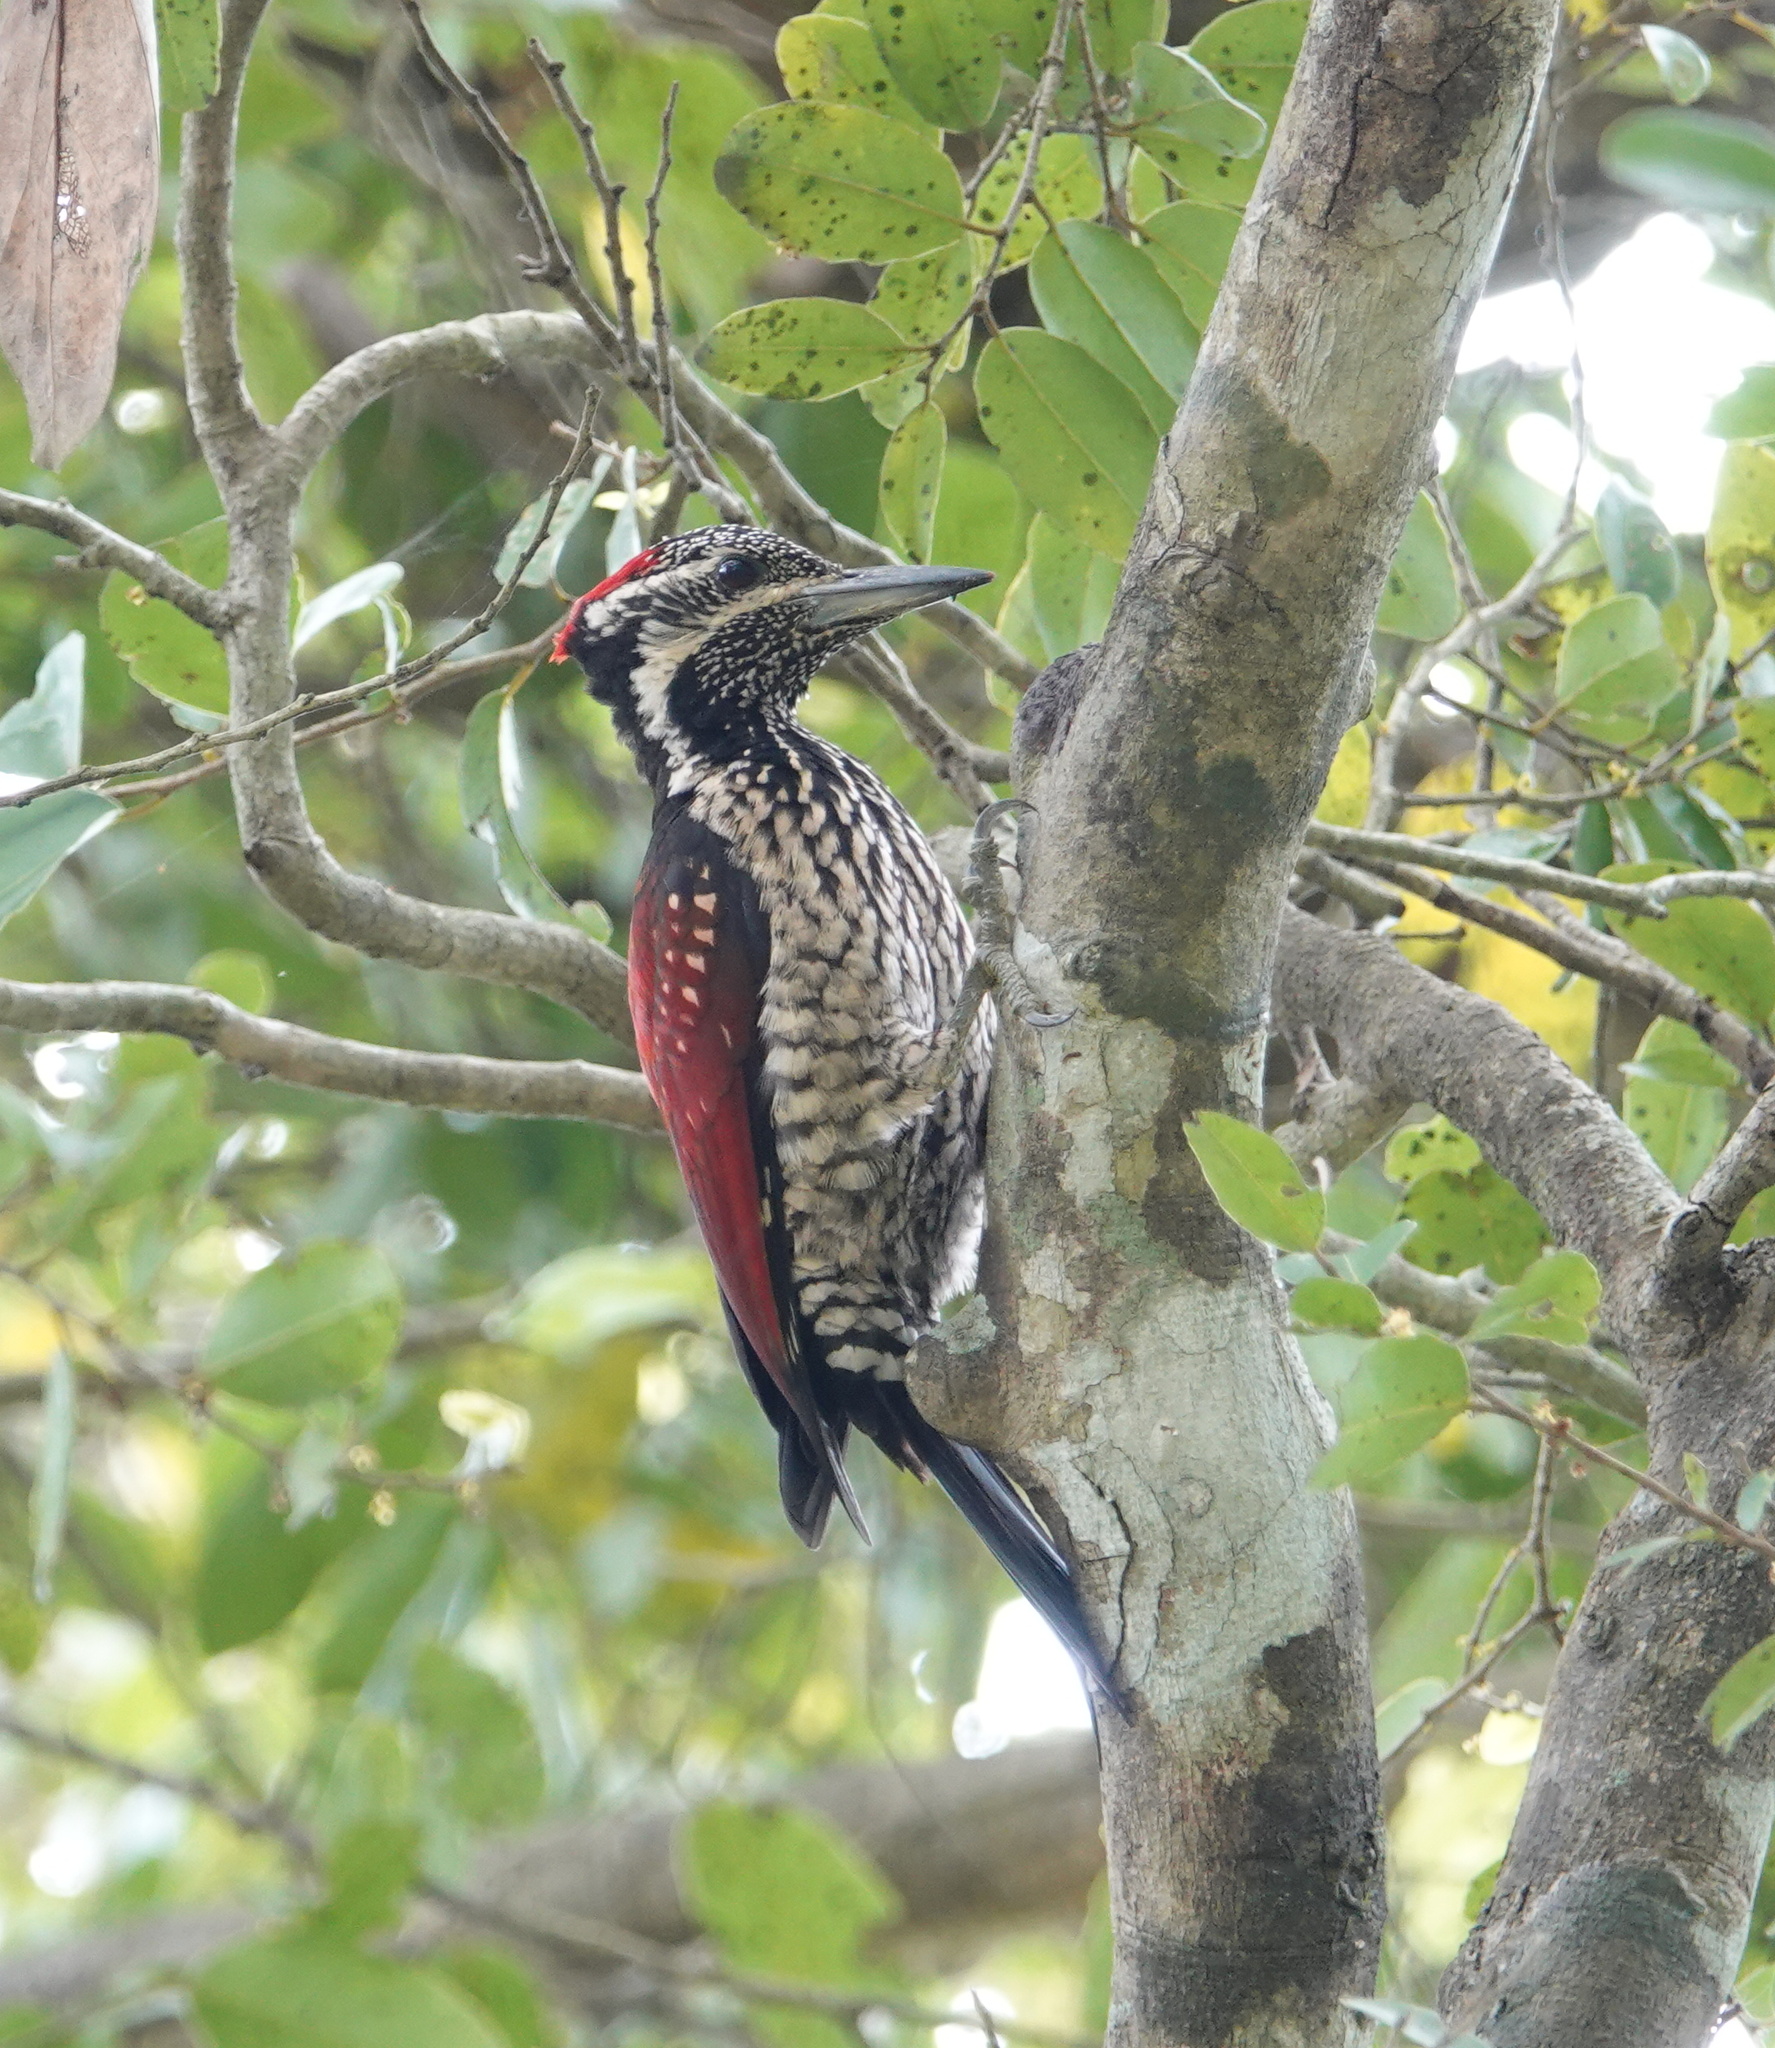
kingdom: Animalia
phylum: Chordata
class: Aves
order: Piciformes
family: Picidae
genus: Dinopium
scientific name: Dinopium psarodes
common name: Red-backed flameback
